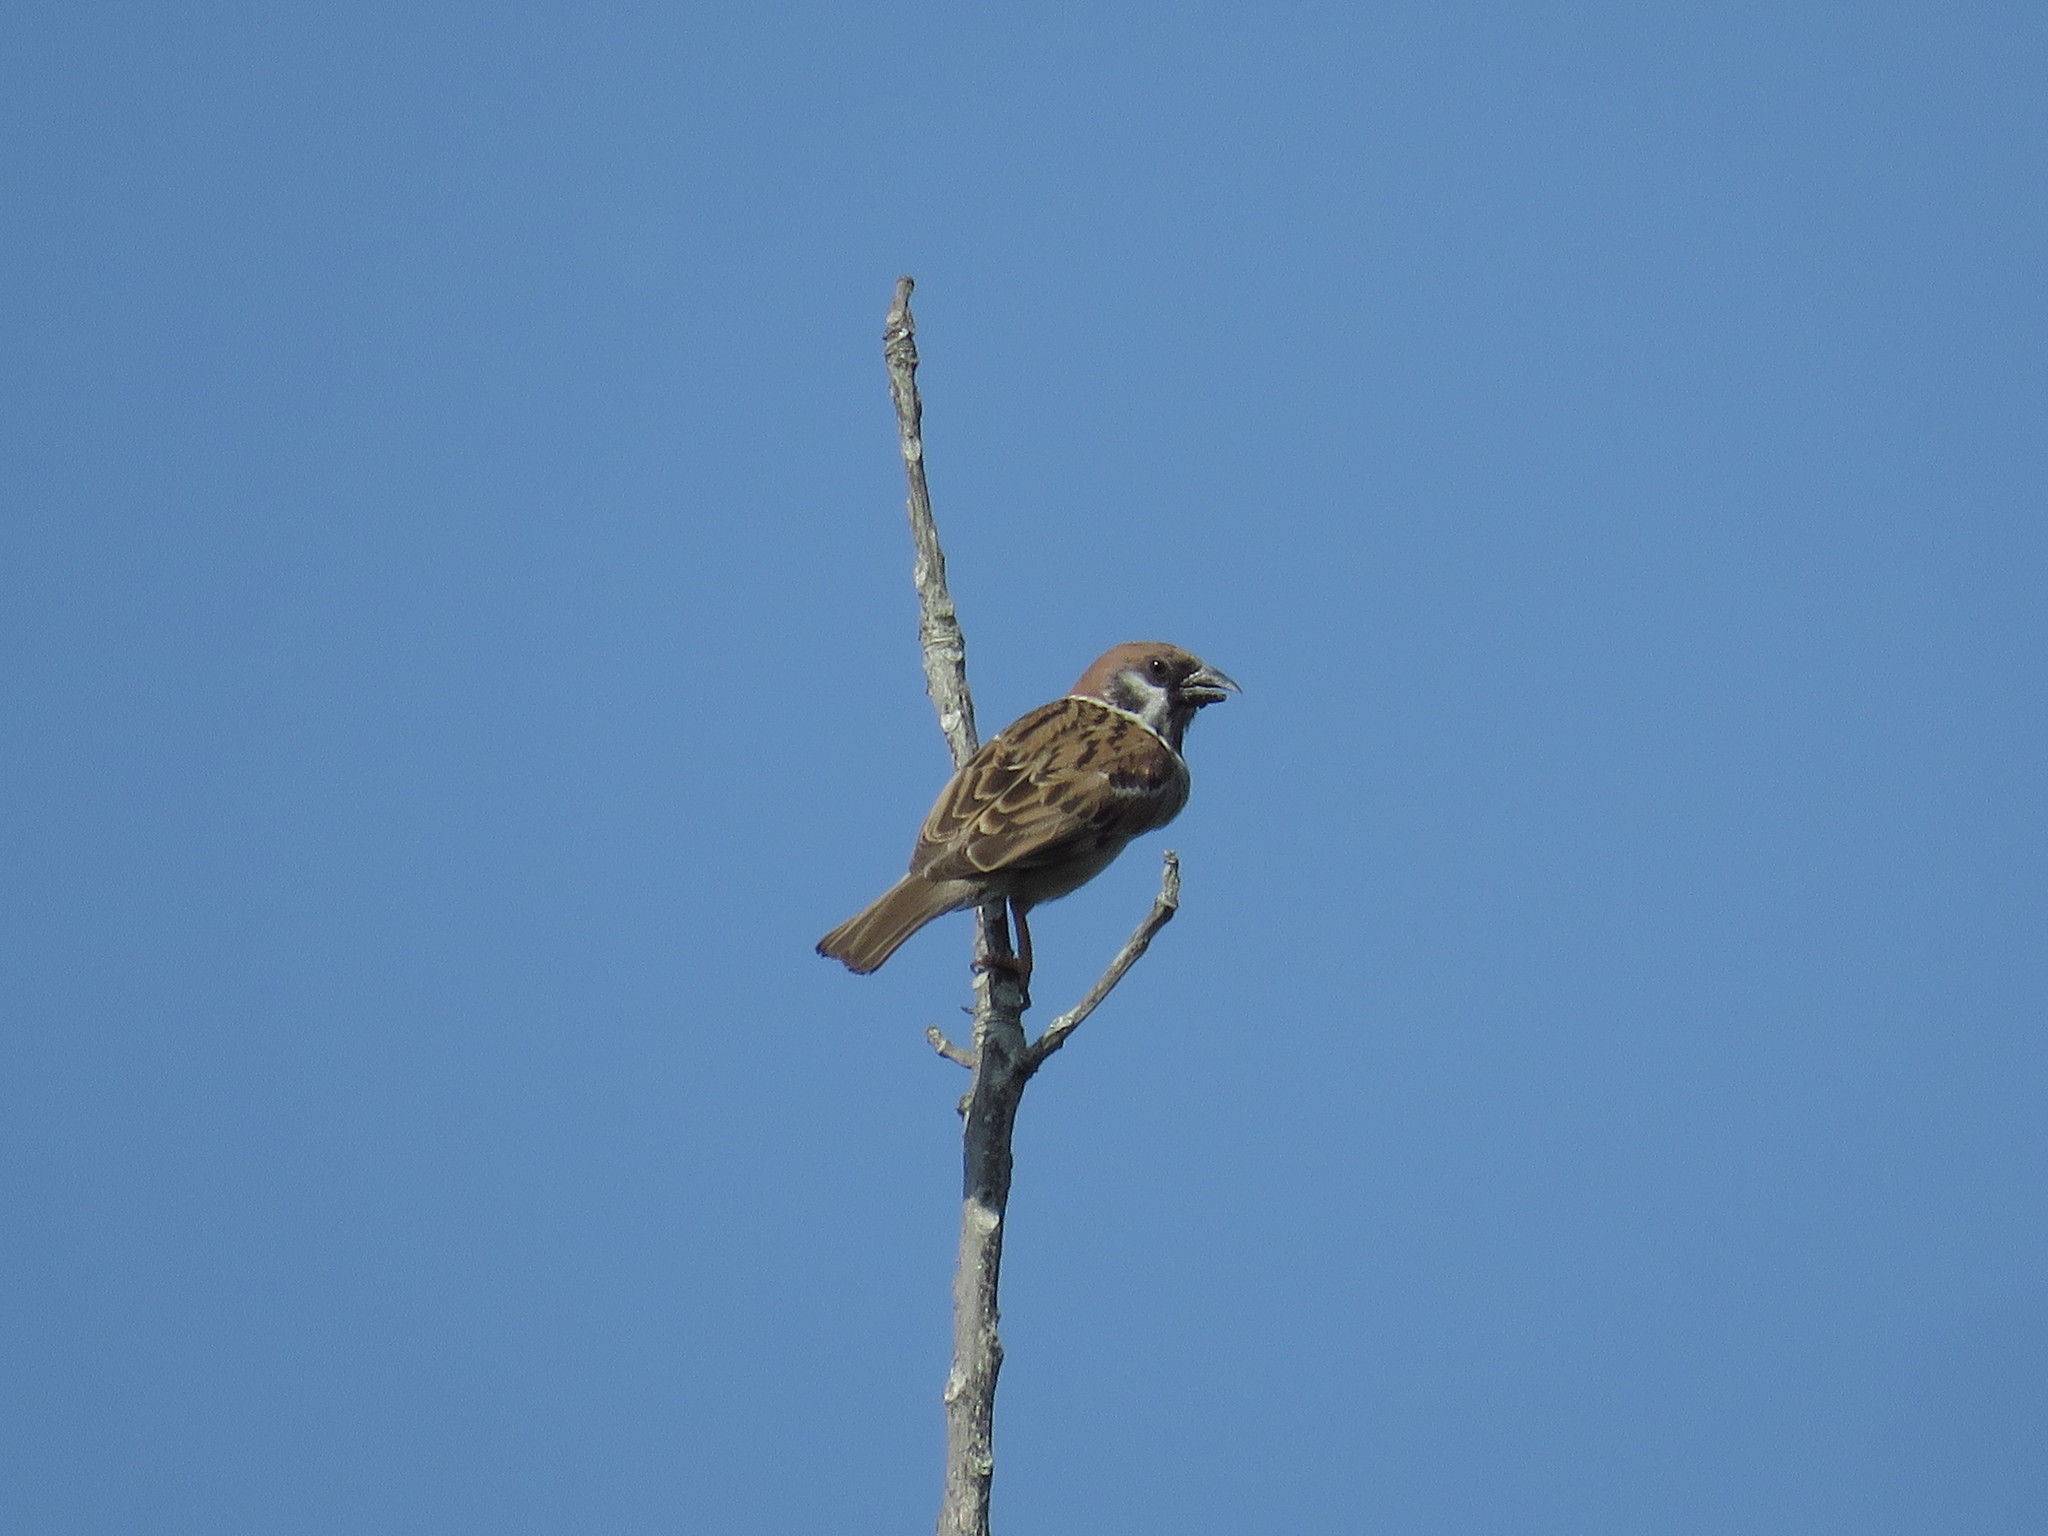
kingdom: Animalia
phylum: Chordata
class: Aves
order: Passeriformes
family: Passeridae
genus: Passer
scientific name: Passer montanus
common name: Eurasian tree sparrow
